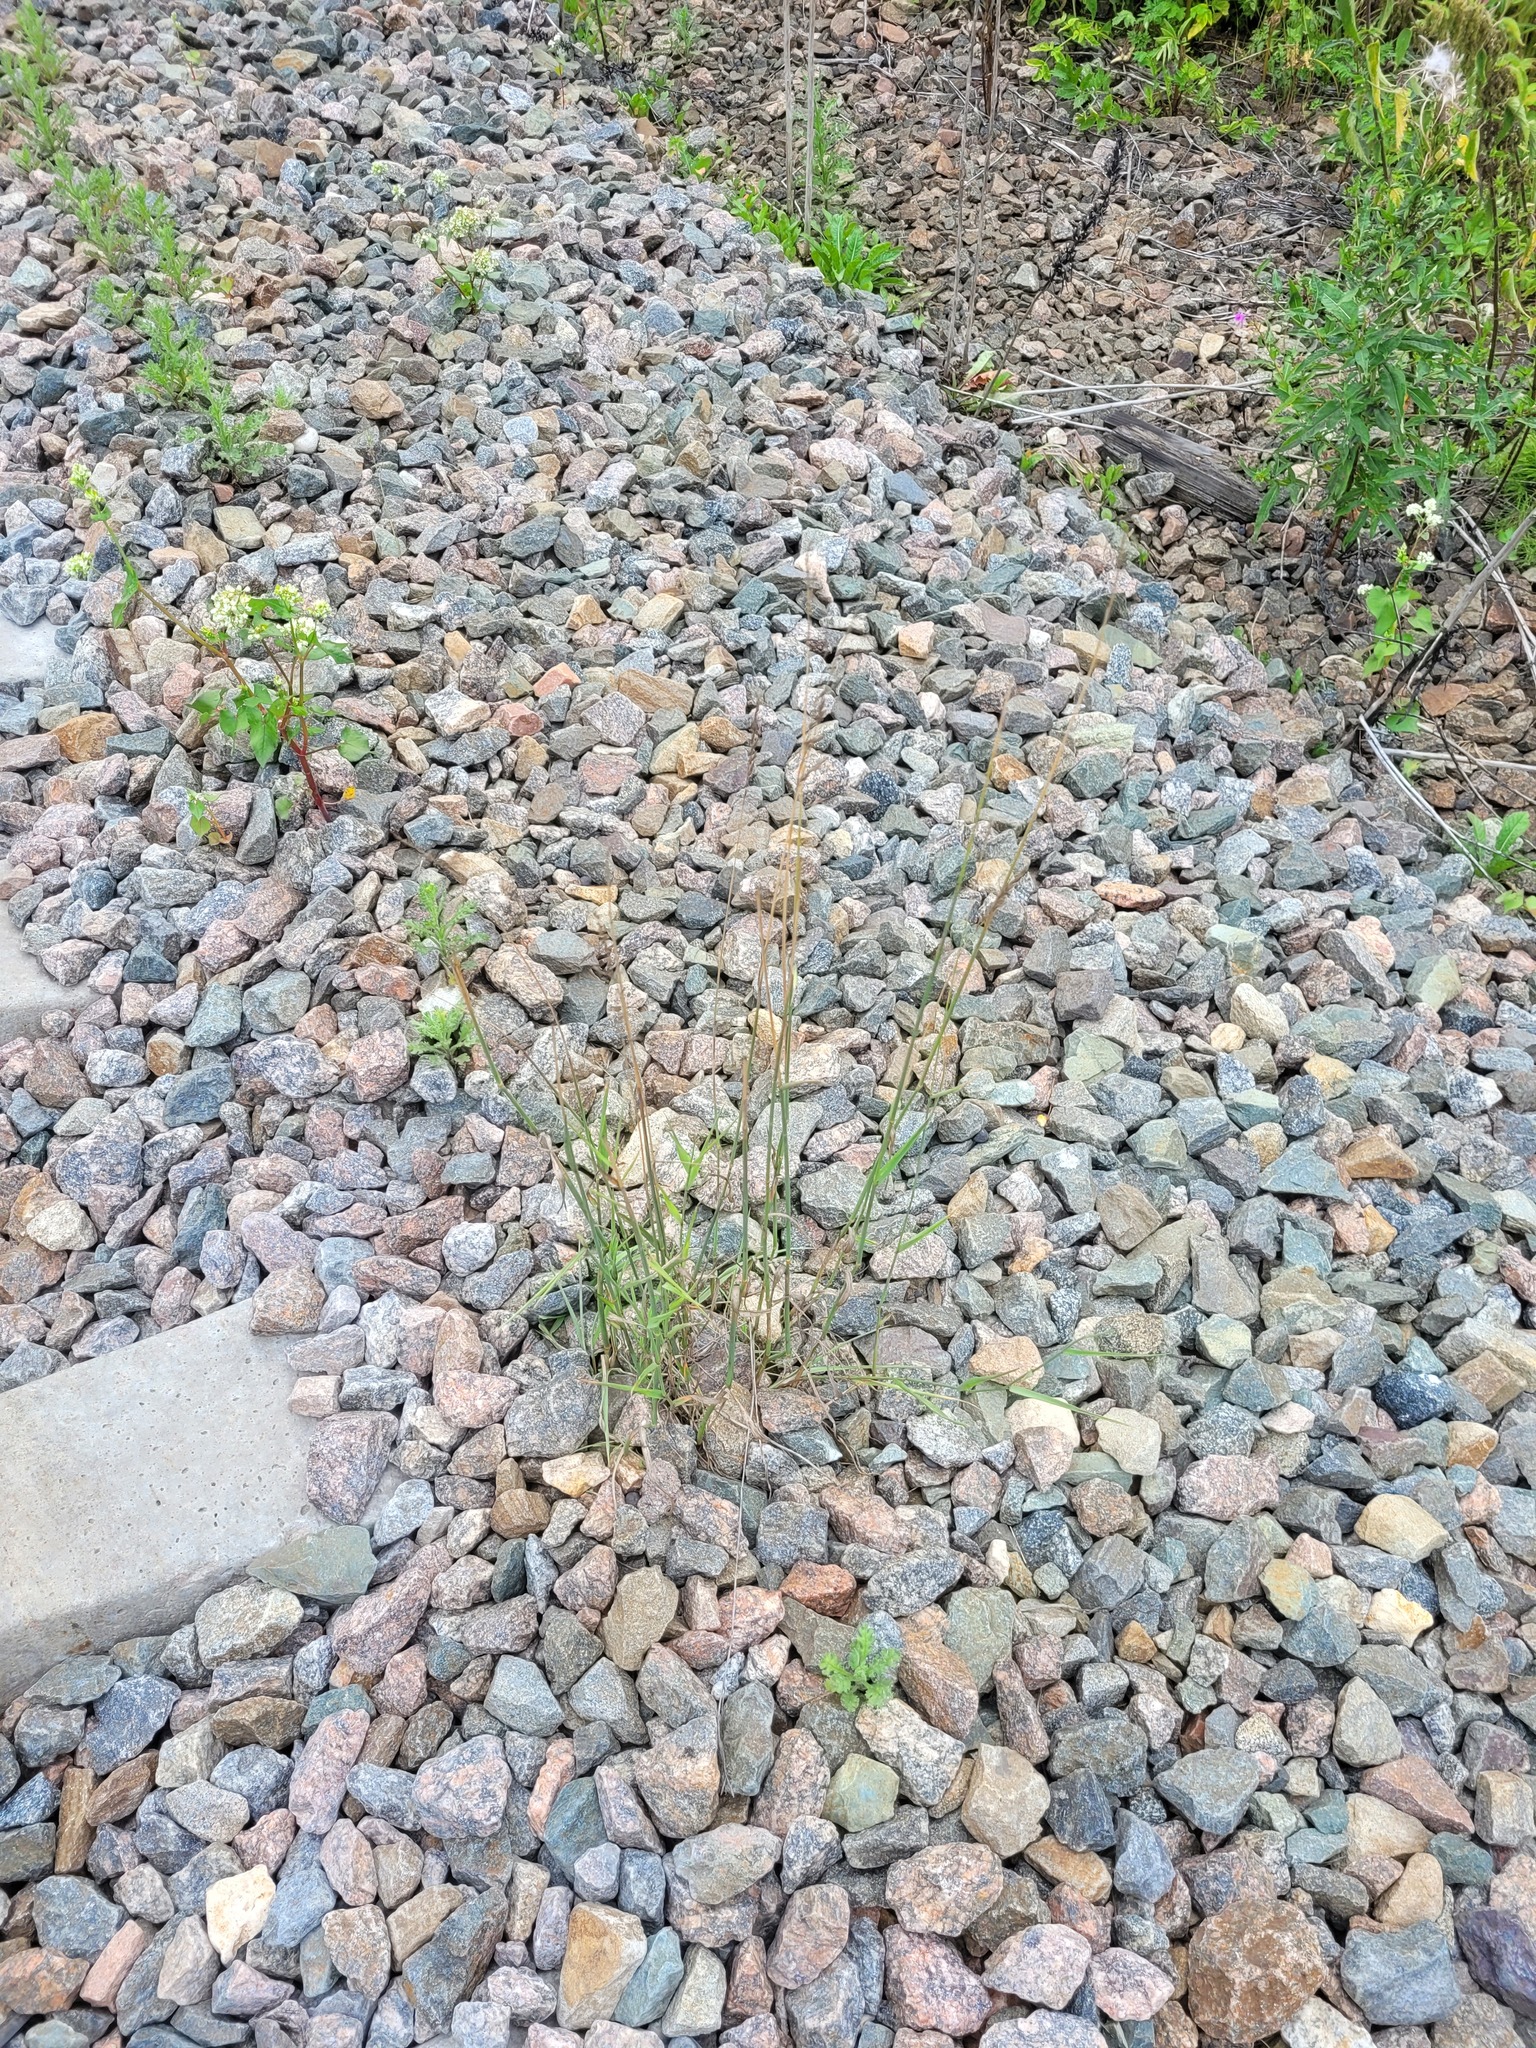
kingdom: Plantae
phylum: Tracheophyta
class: Liliopsida
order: Poales
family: Poaceae
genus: Arrhenatherum
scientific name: Arrhenatherum elatius
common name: Tall oatgrass
